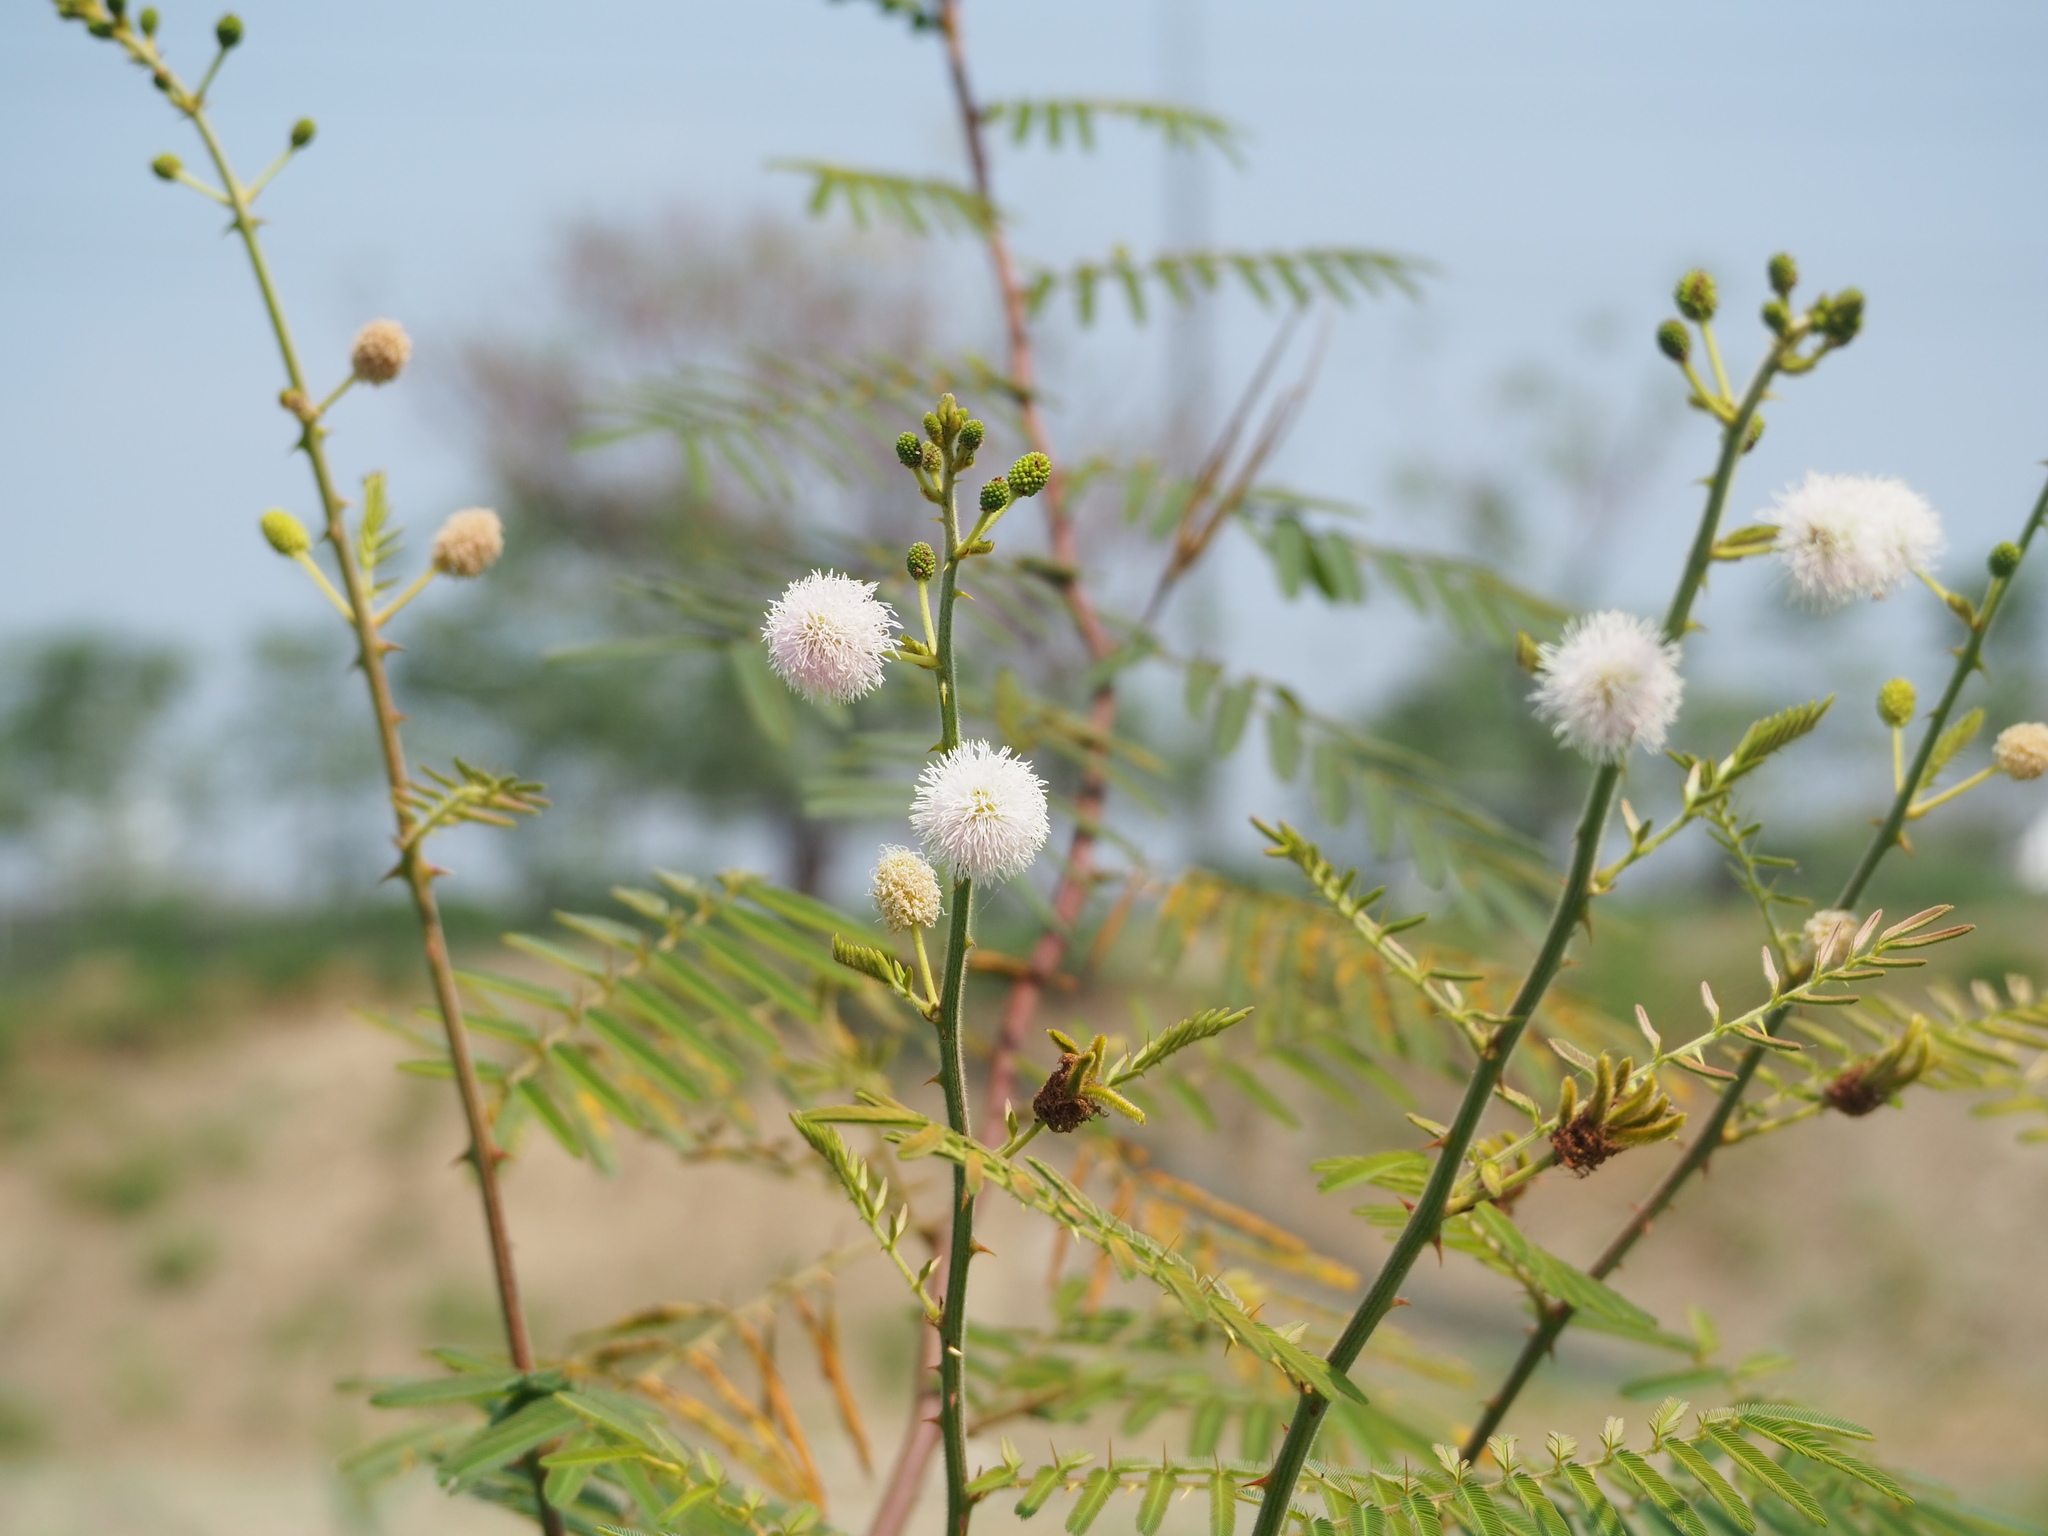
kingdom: Plantae
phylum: Tracheophyta
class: Magnoliopsida
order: Fabales
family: Fabaceae
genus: Mimosa
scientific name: Mimosa pigra
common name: Black mimosa
